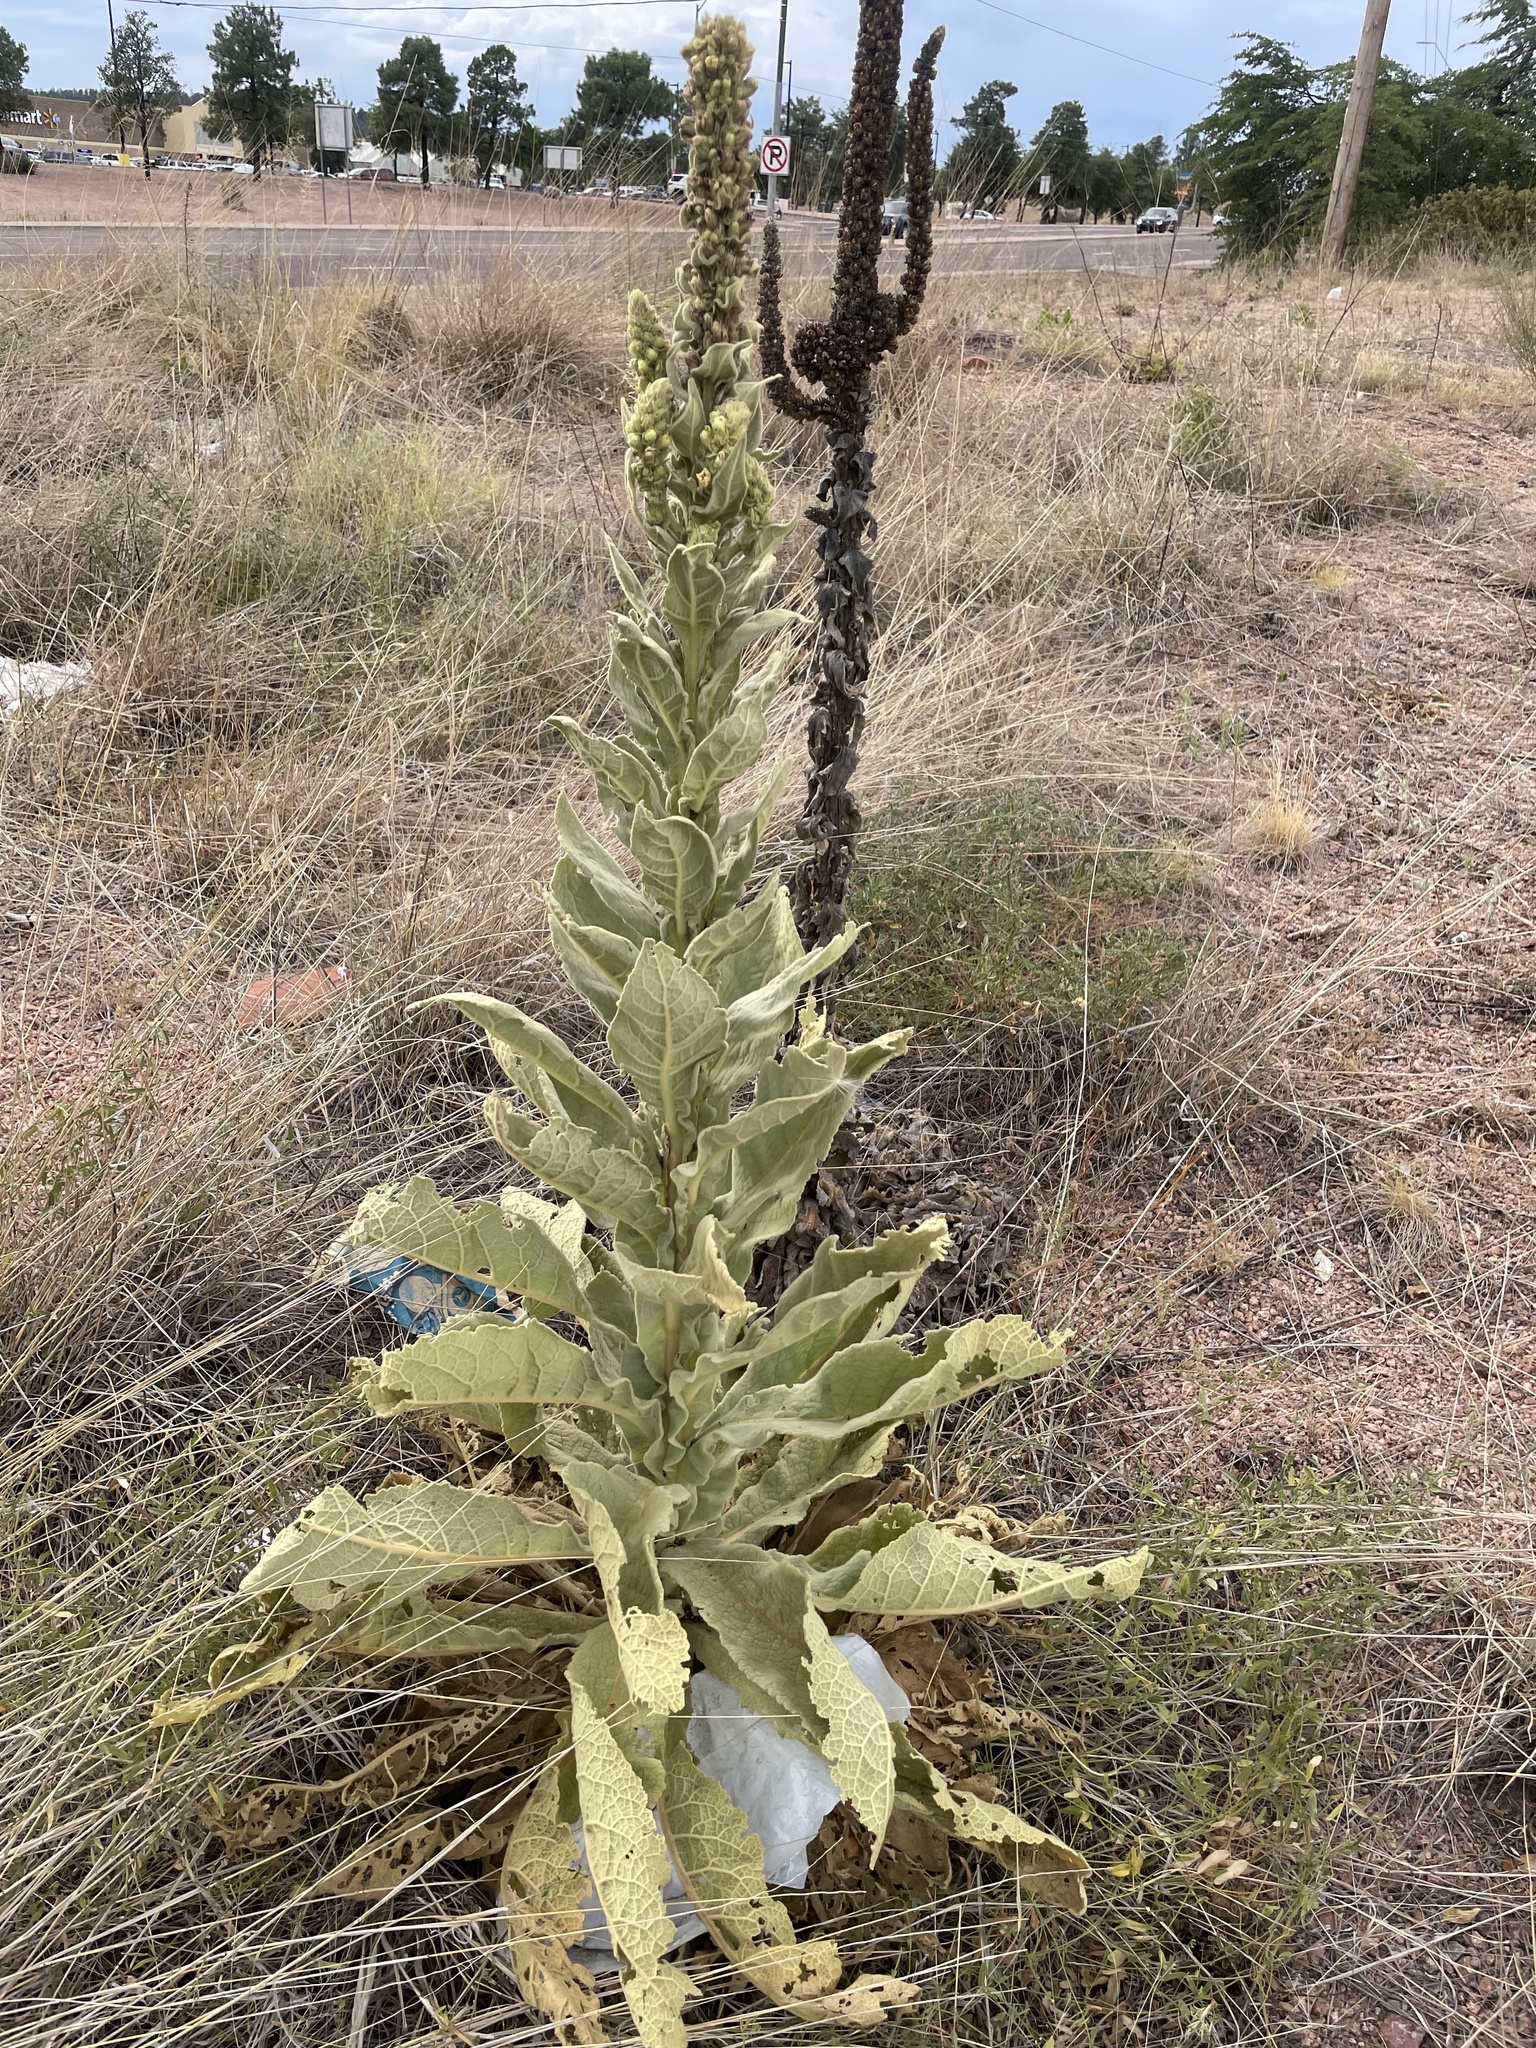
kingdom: Plantae
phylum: Tracheophyta
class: Magnoliopsida
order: Lamiales
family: Scrophulariaceae
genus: Verbascum
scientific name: Verbascum thapsus
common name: Common mullein
